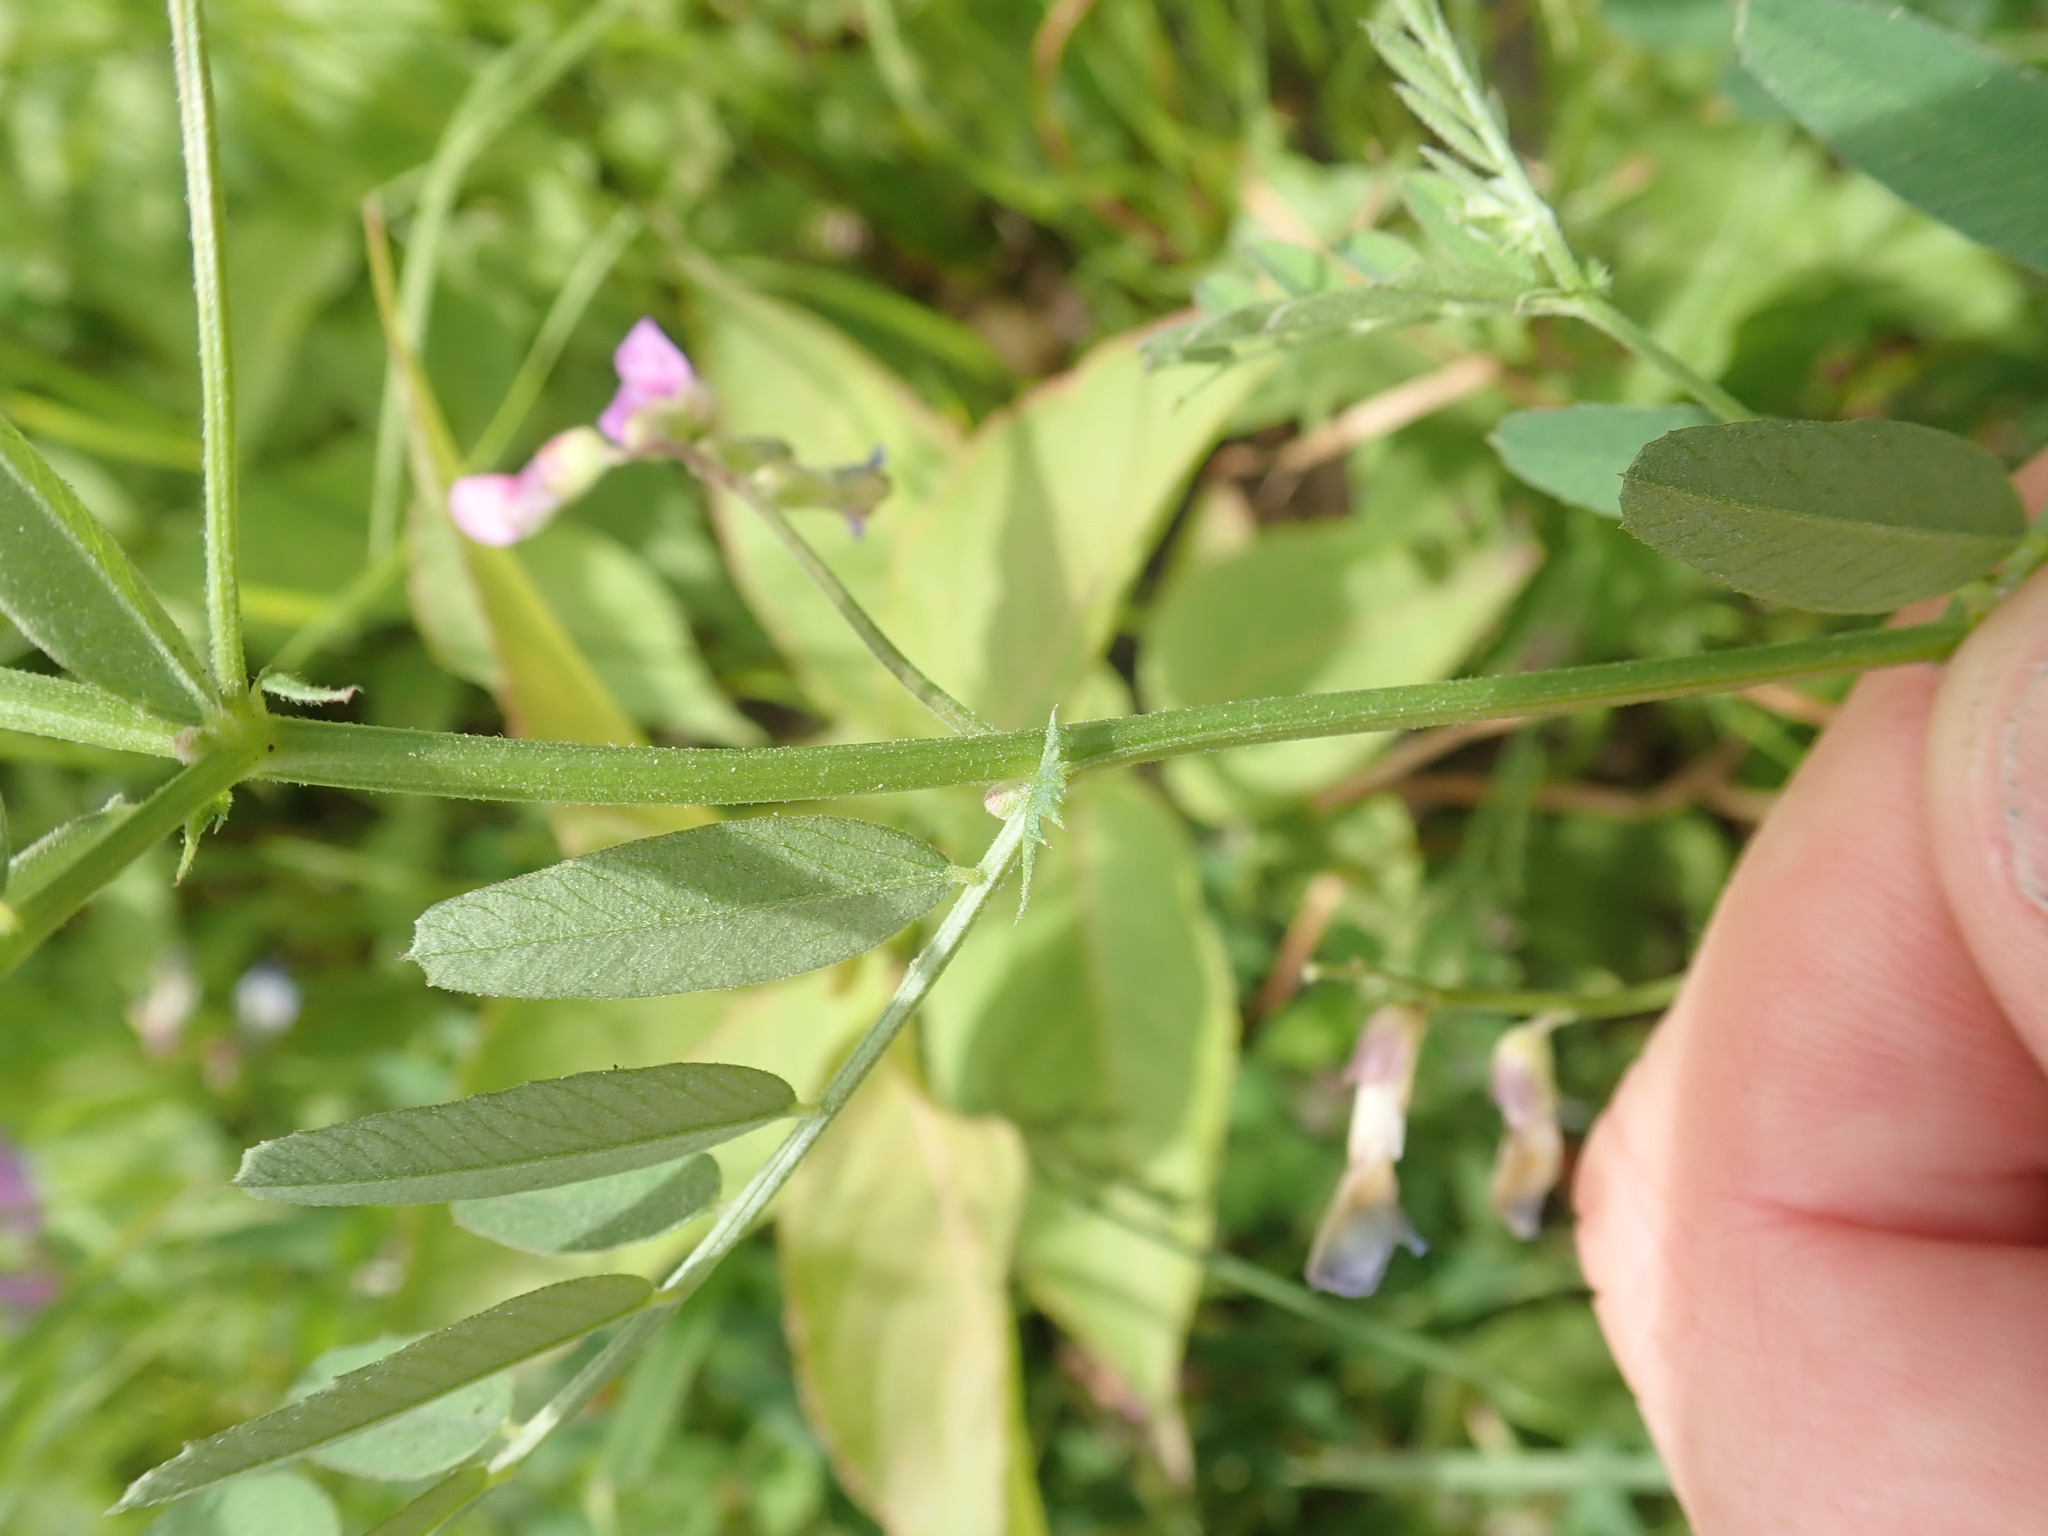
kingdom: Plantae
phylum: Tracheophyta
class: Magnoliopsida
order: Fabales
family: Fabaceae
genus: Vicia
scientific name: Vicia americana
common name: American vetch
